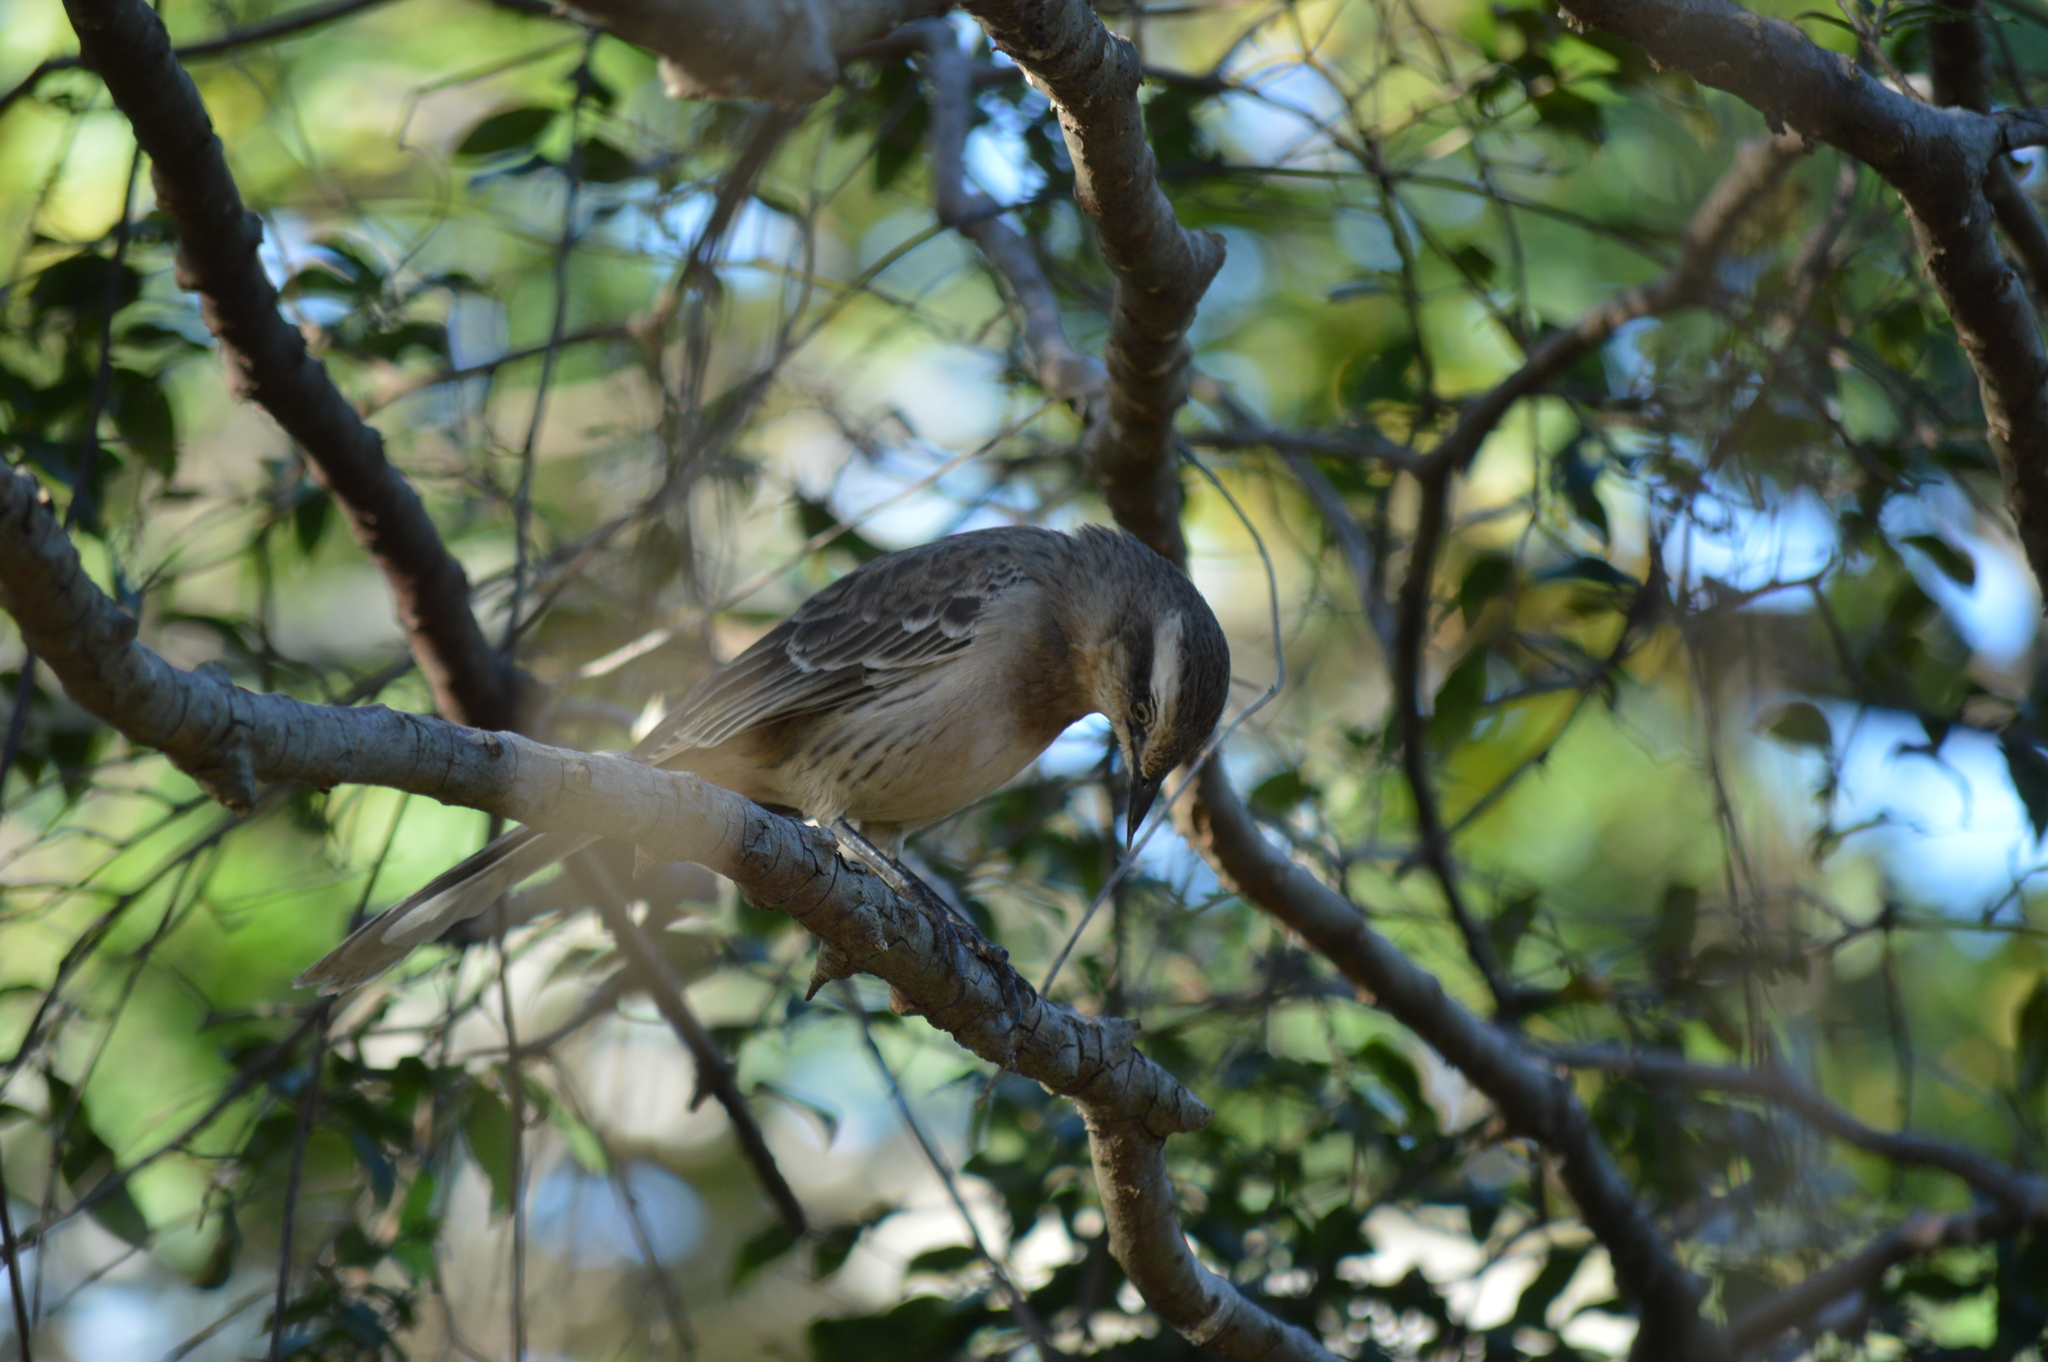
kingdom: Animalia
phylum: Chordata
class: Aves
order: Passeriformes
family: Mimidae
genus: Mimus
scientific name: Mimus saturninus
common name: Chalk-browed mockingbird
